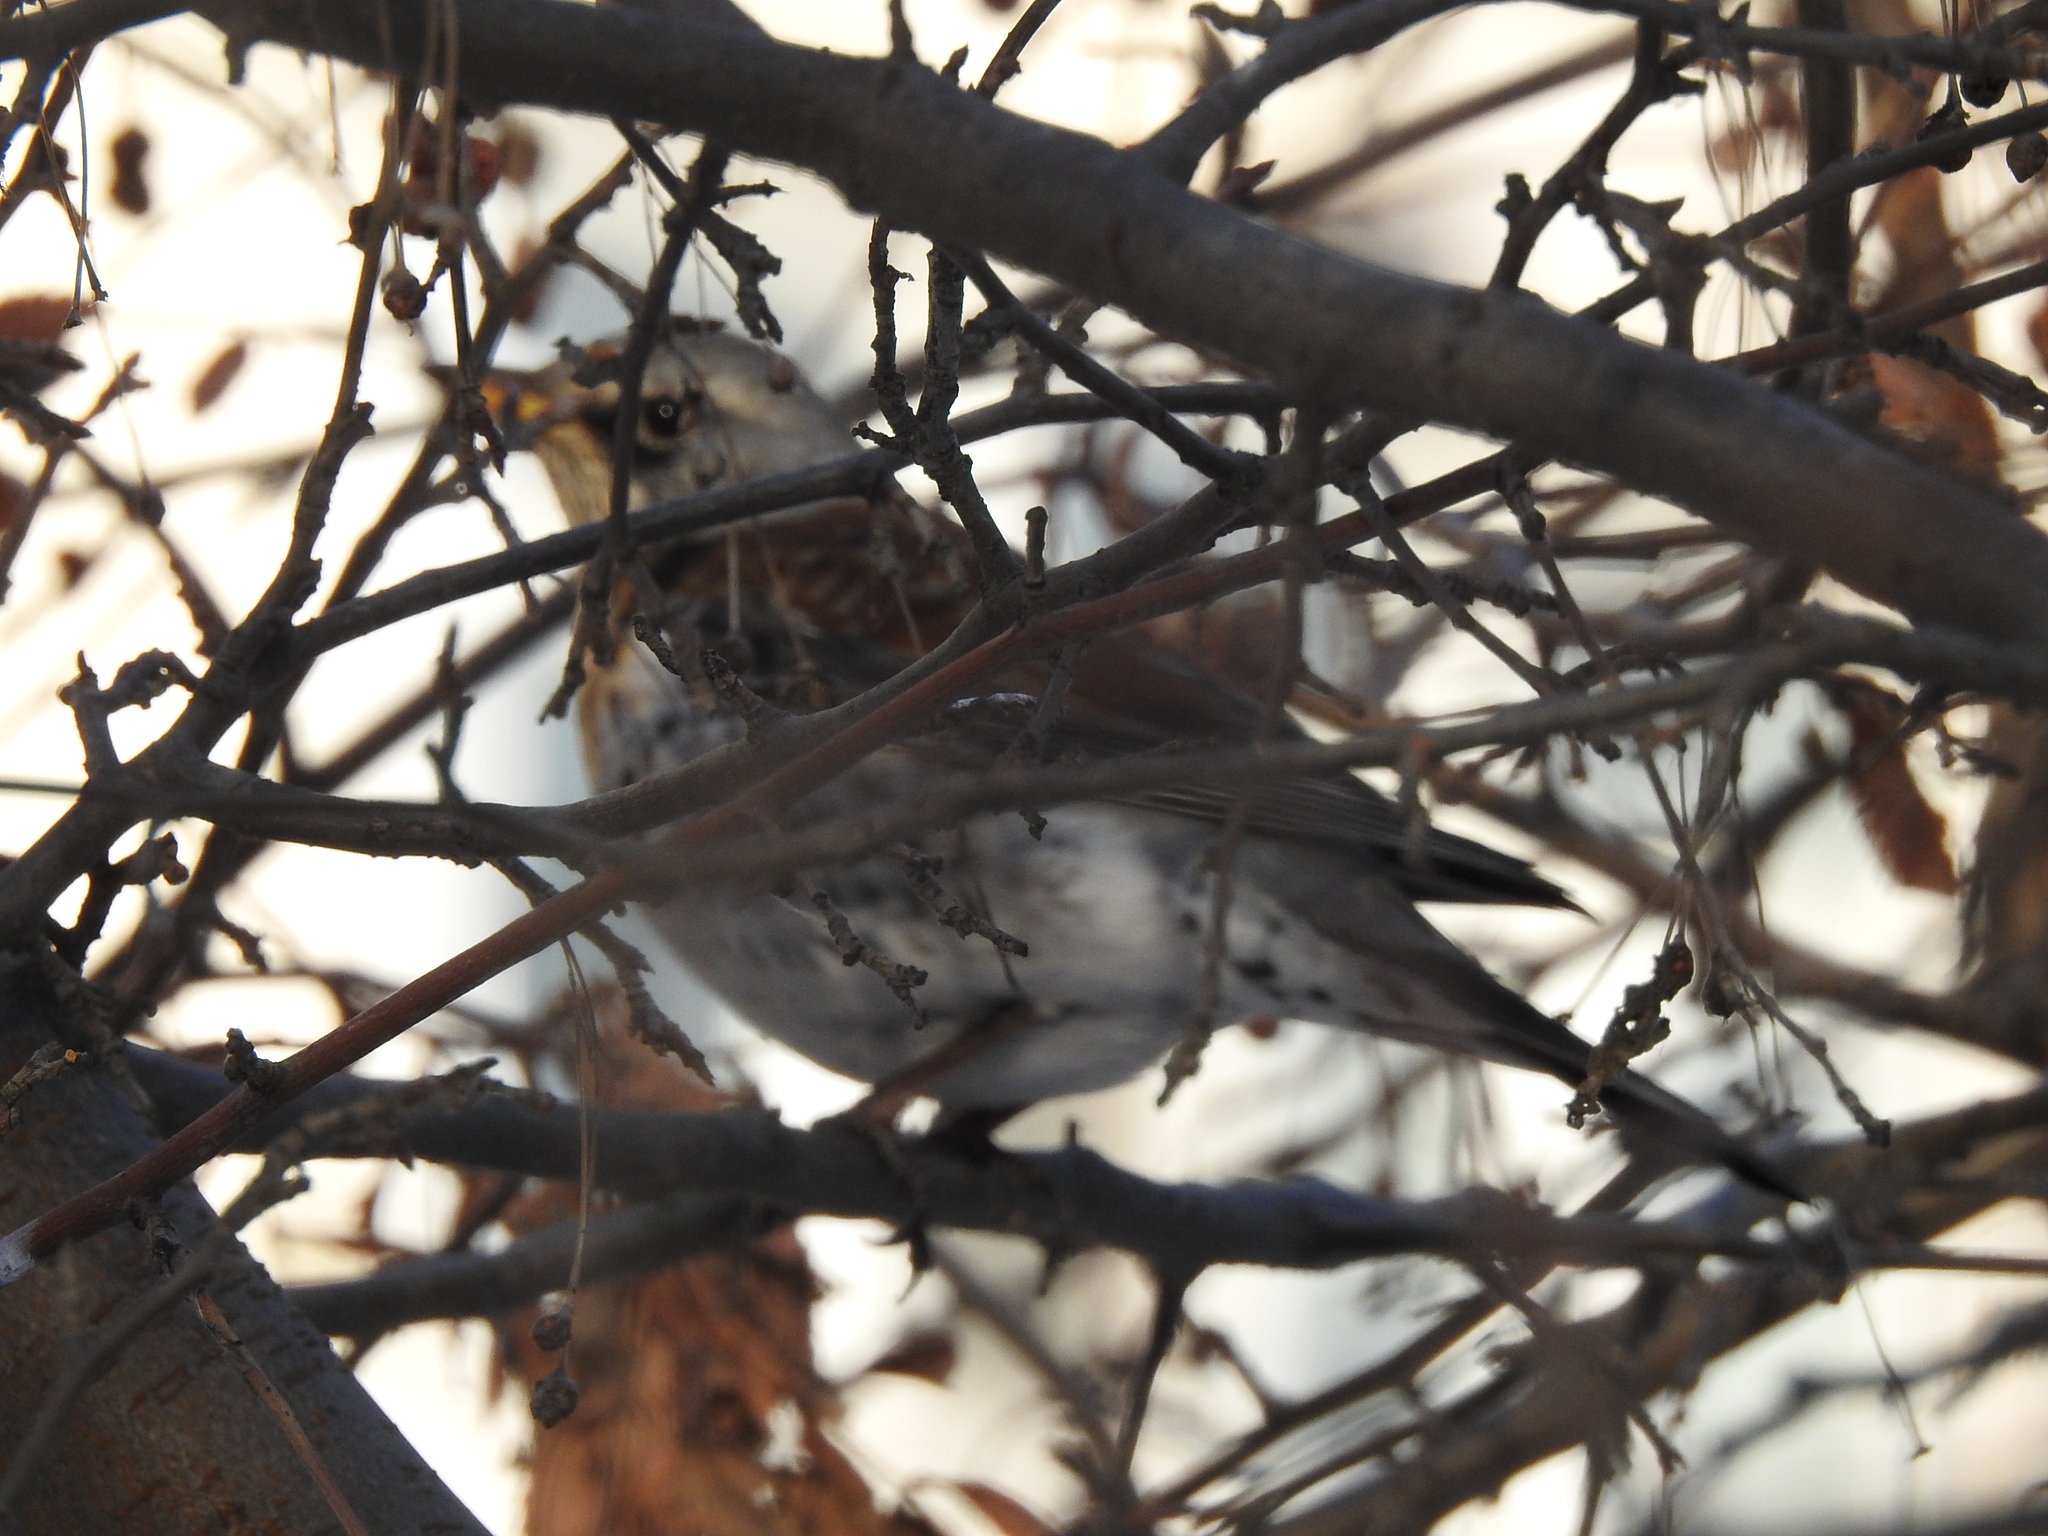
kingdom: Animalia
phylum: Chordata
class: Aves
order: Passeriformes
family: Turdidae
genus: Turdus
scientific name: Turdus pilaris
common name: Fieldfare
